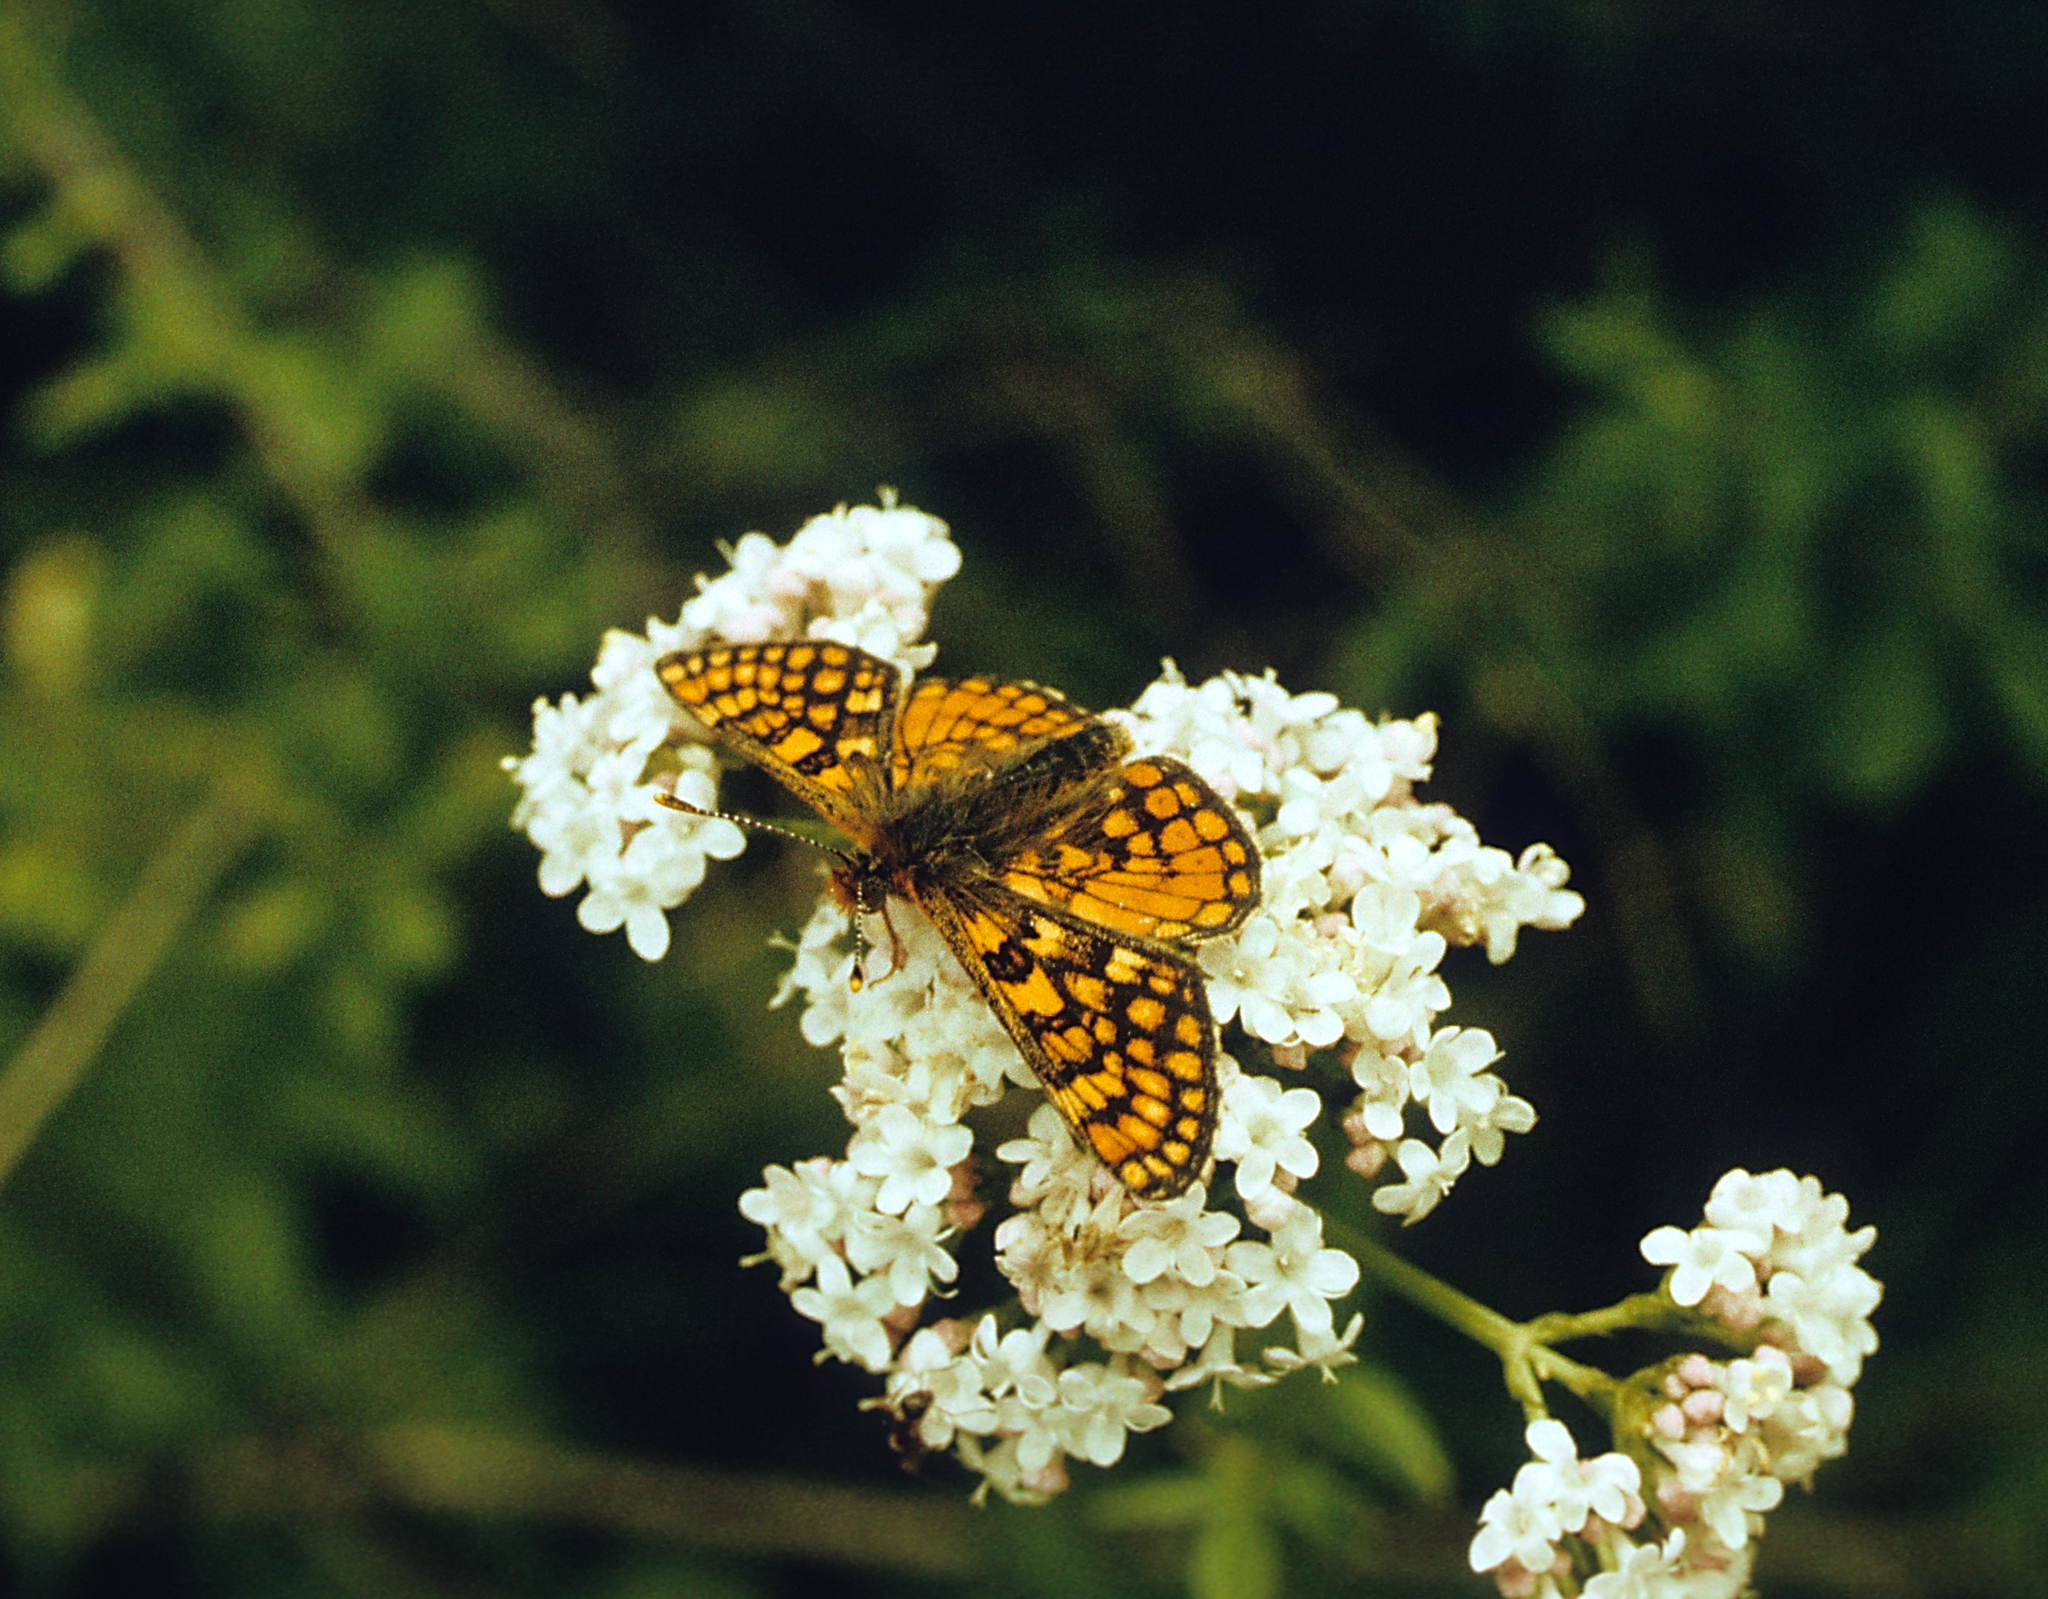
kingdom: Animalia
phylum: Arthropoda
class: Insecta
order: Lepidoptera
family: Nymphalidae
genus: Euphydryas
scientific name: Euphydryas asiatica
